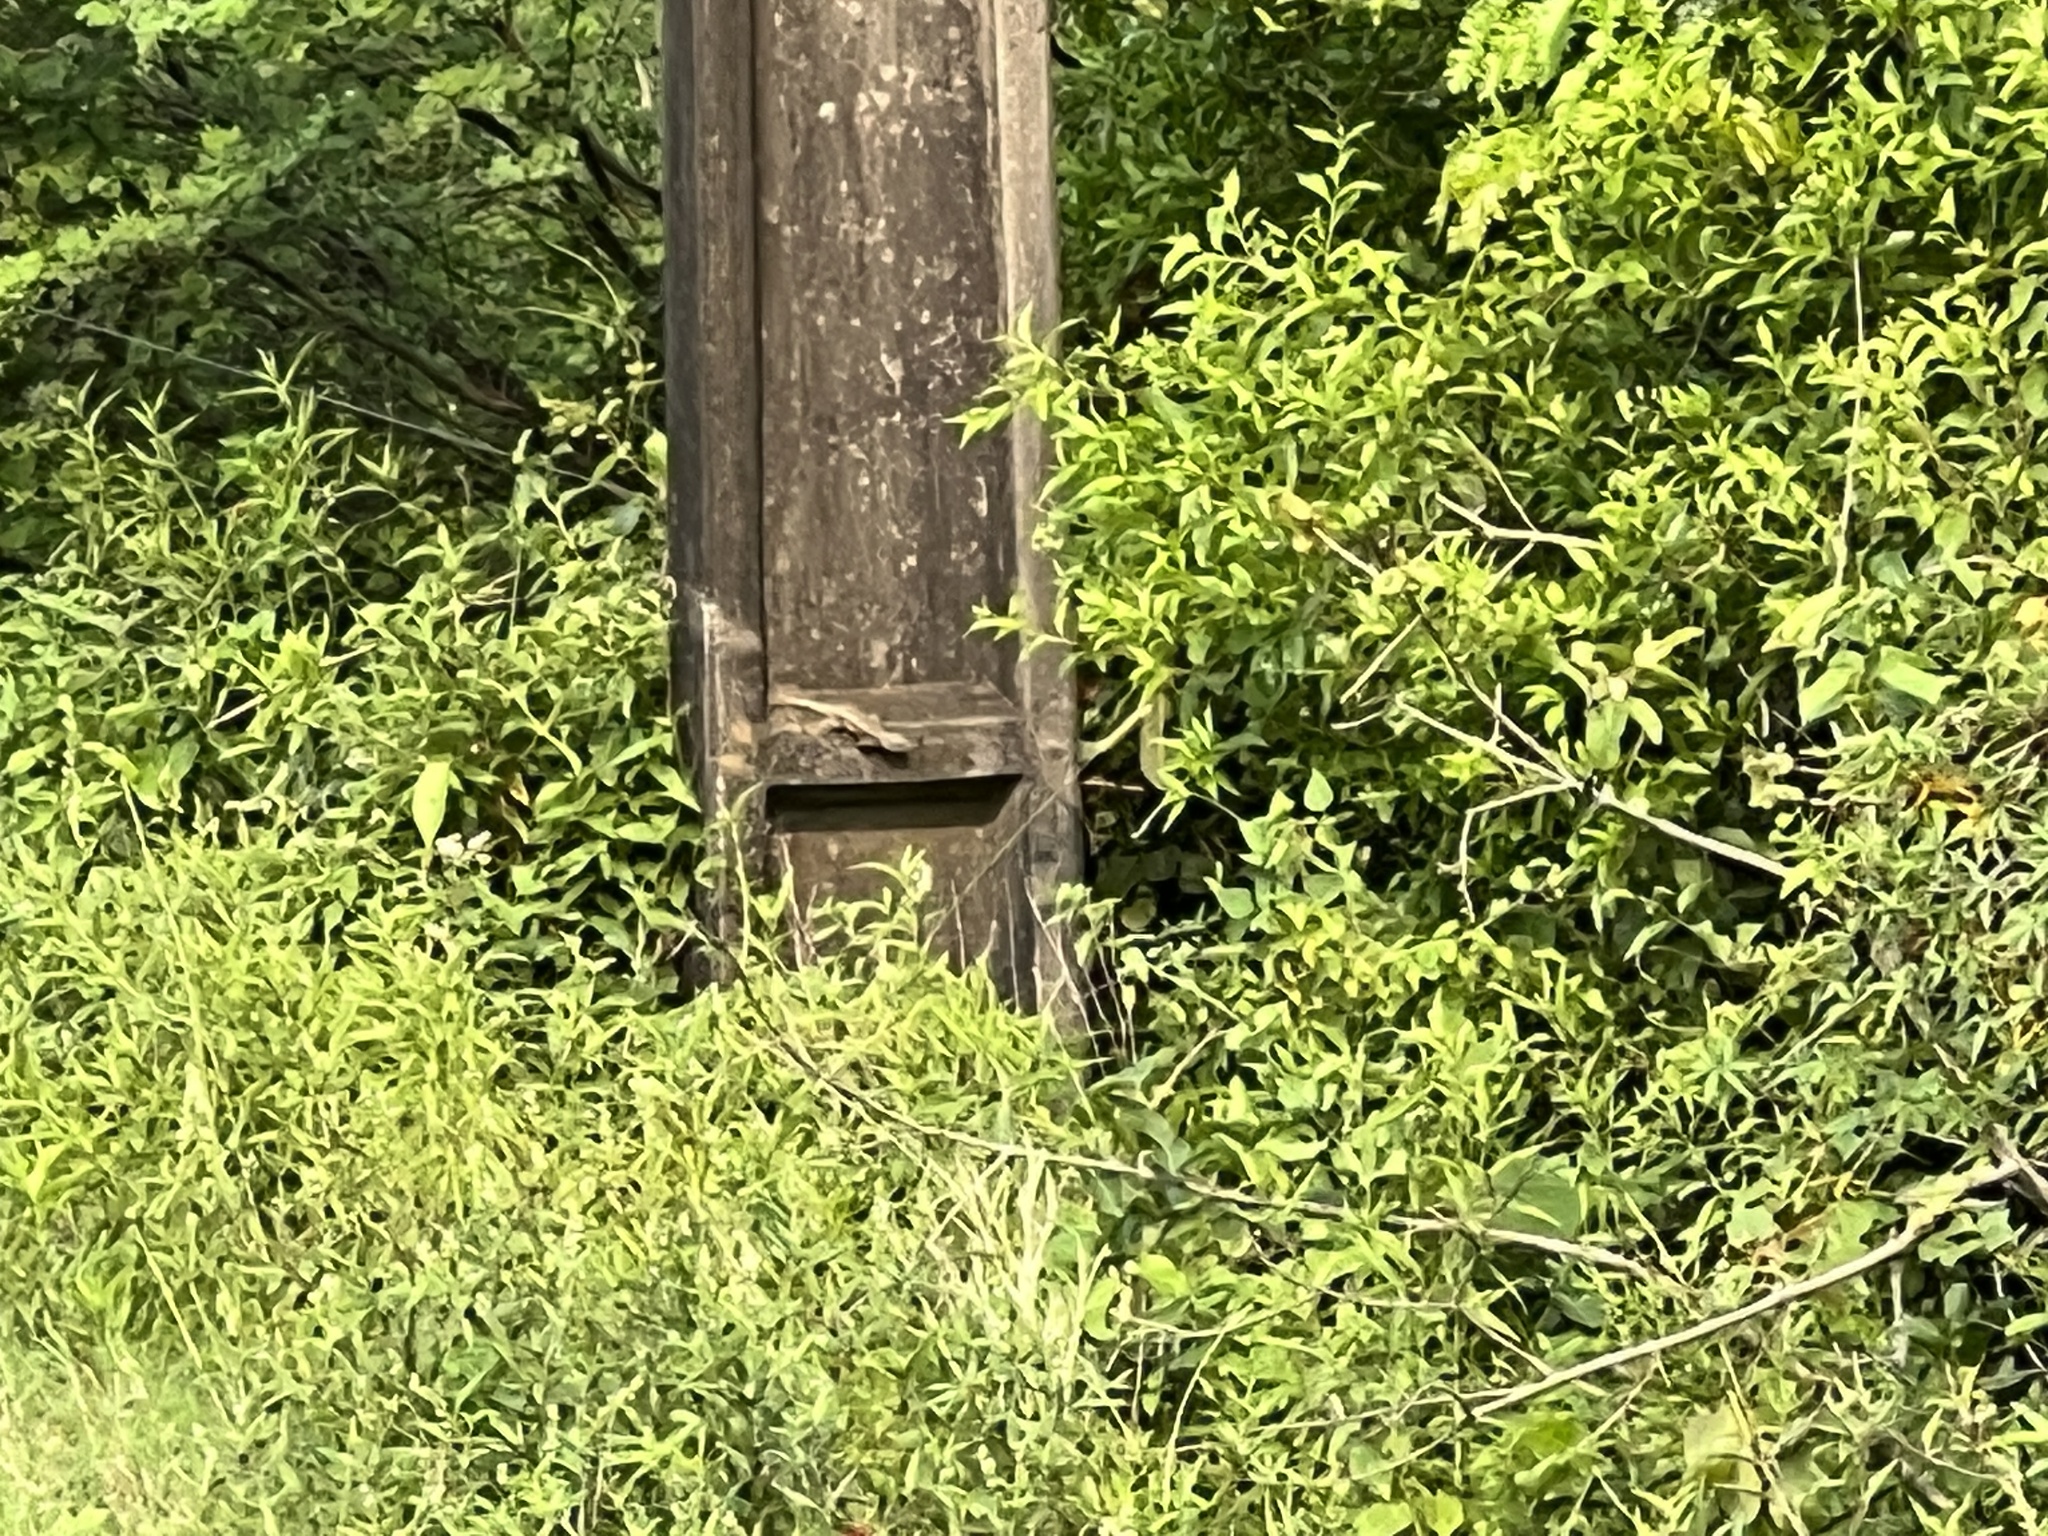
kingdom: Animalia
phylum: Chordata
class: Squamata
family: Tropiduridae
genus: Tropidurus
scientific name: Tropidurus catalanensis
